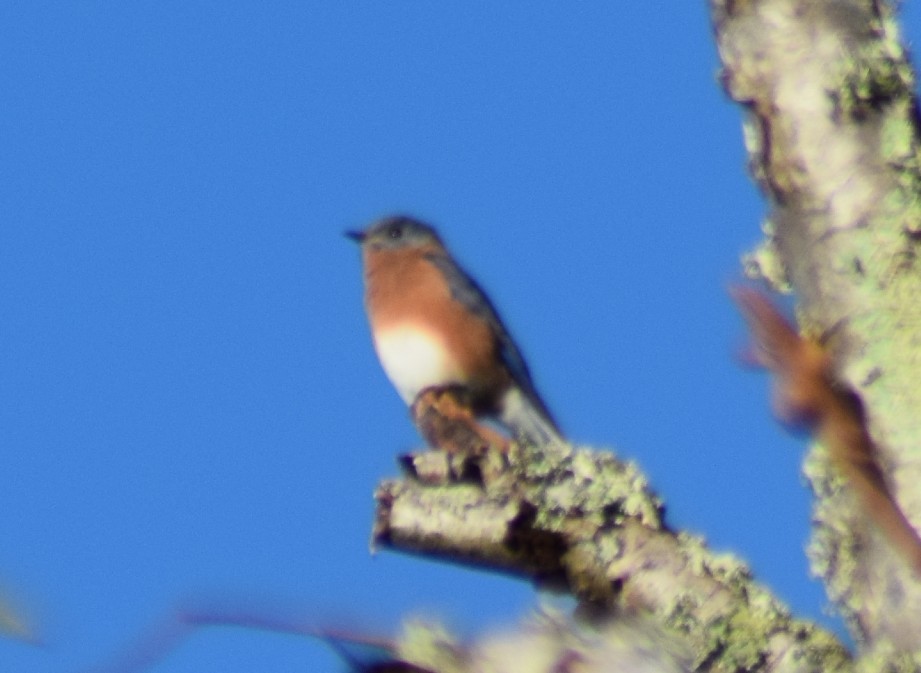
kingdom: Animalia
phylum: Chordata
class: Aves
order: Passeriformes
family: Turdidae
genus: Sialia
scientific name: Sialia sialis
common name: Eastern bluebird
